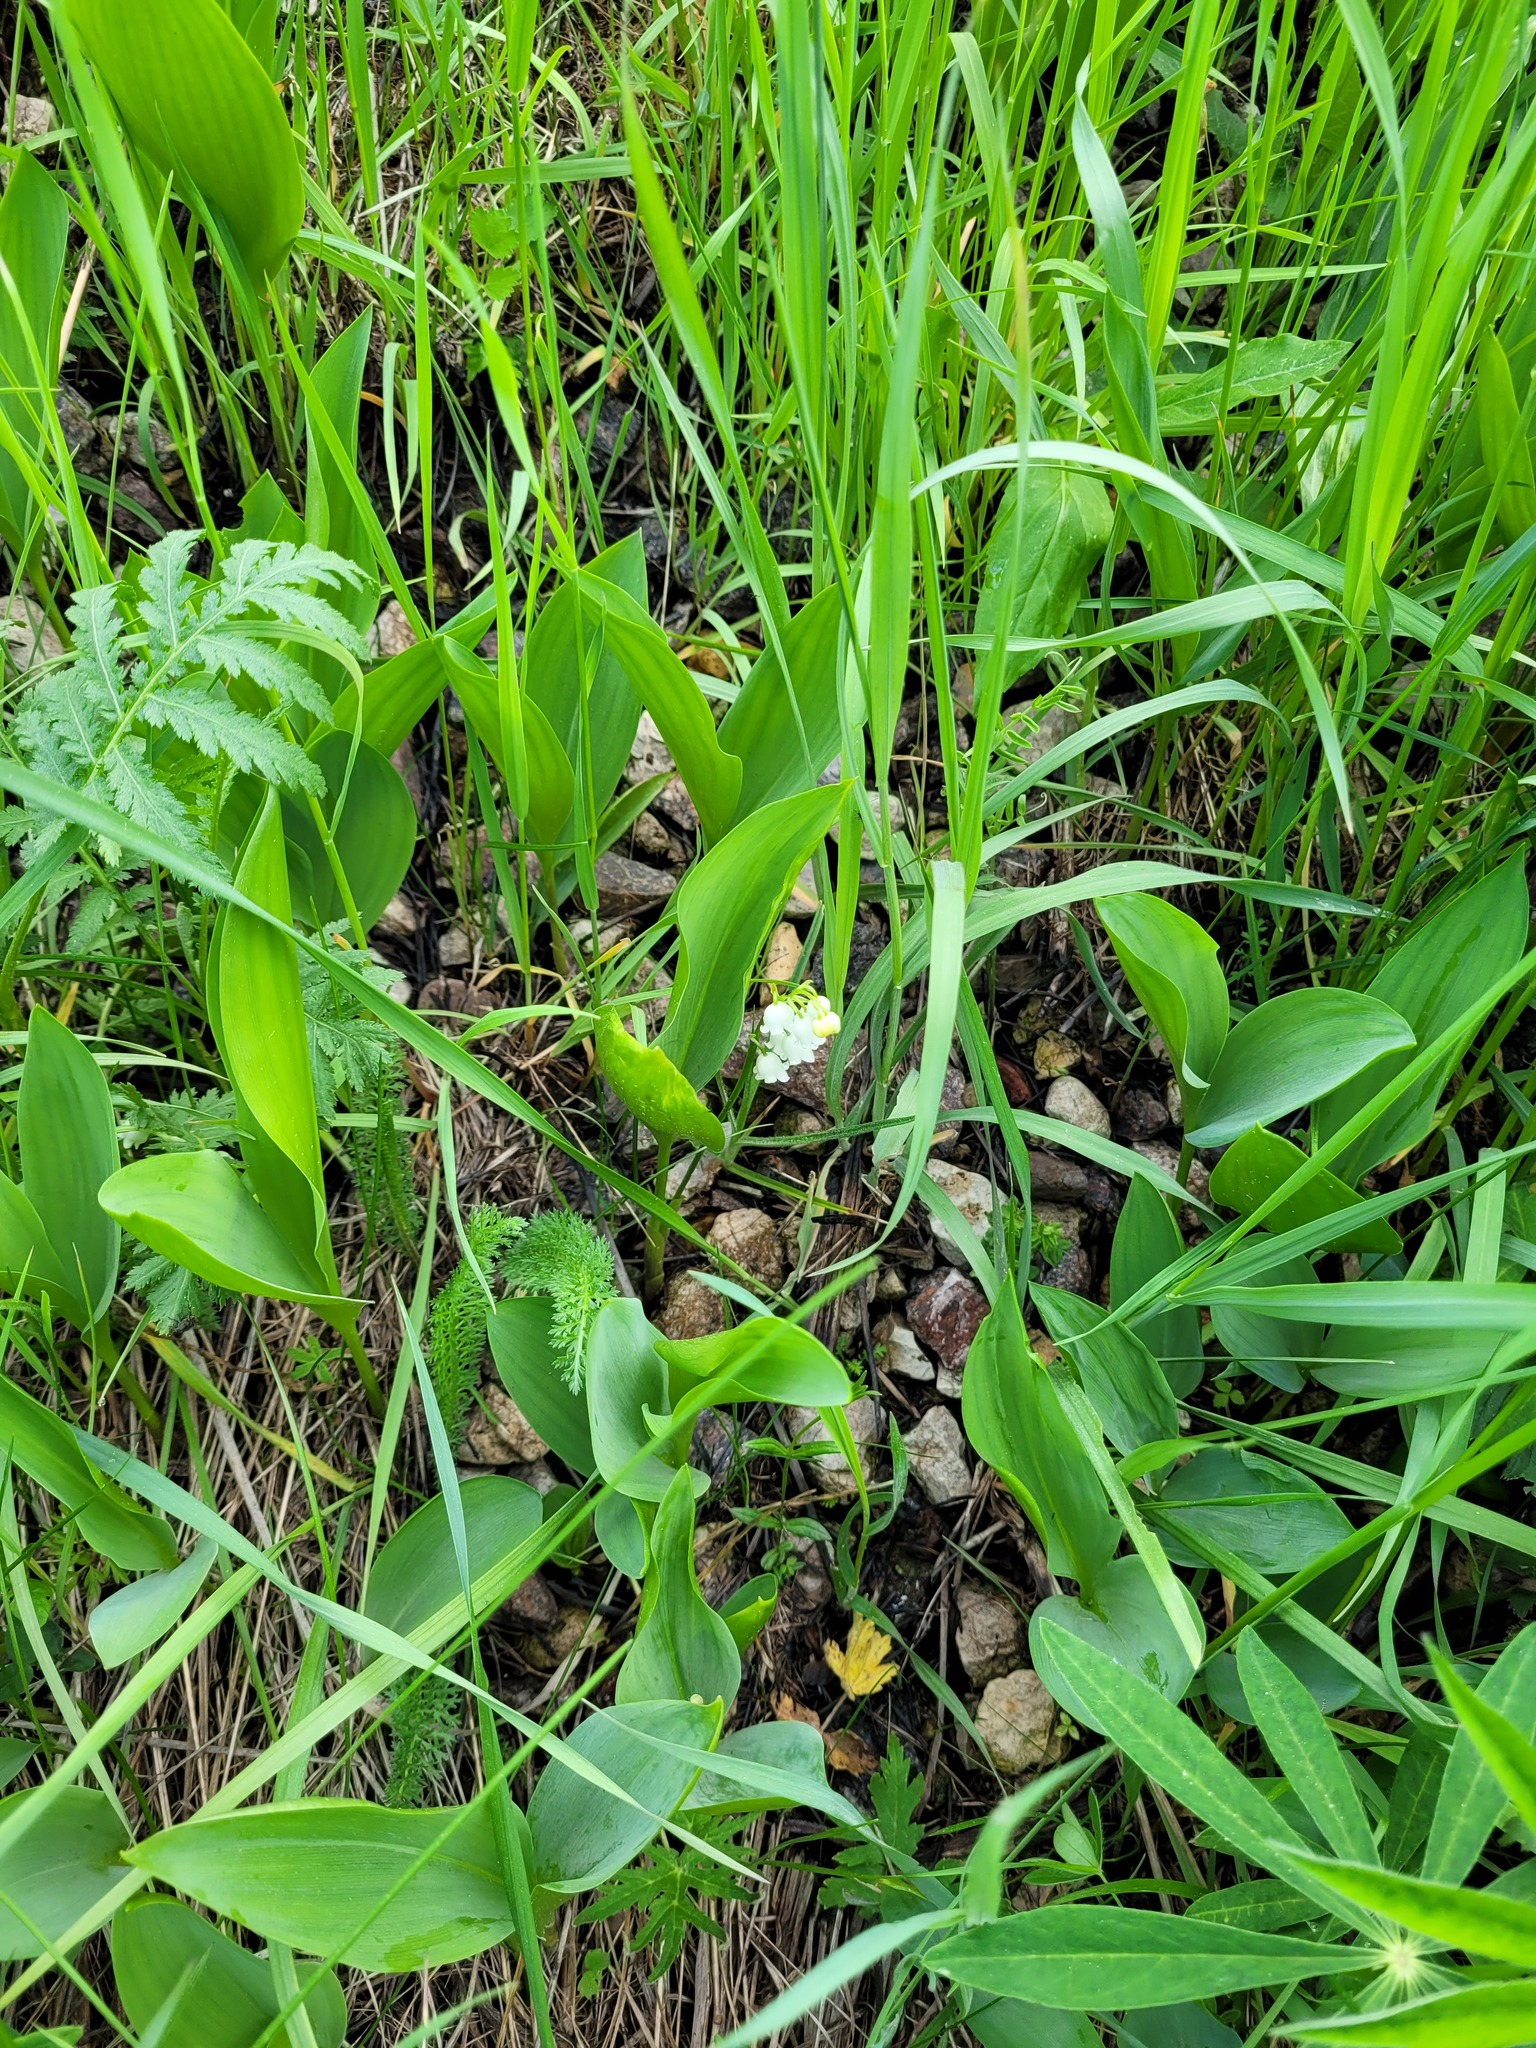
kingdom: Plantae
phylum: Tracheophyta
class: Liliopsida
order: Asparagales
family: Asparagaceae
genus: Convallaria
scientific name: Convallaria majalis
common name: Lily-of-the-valley
